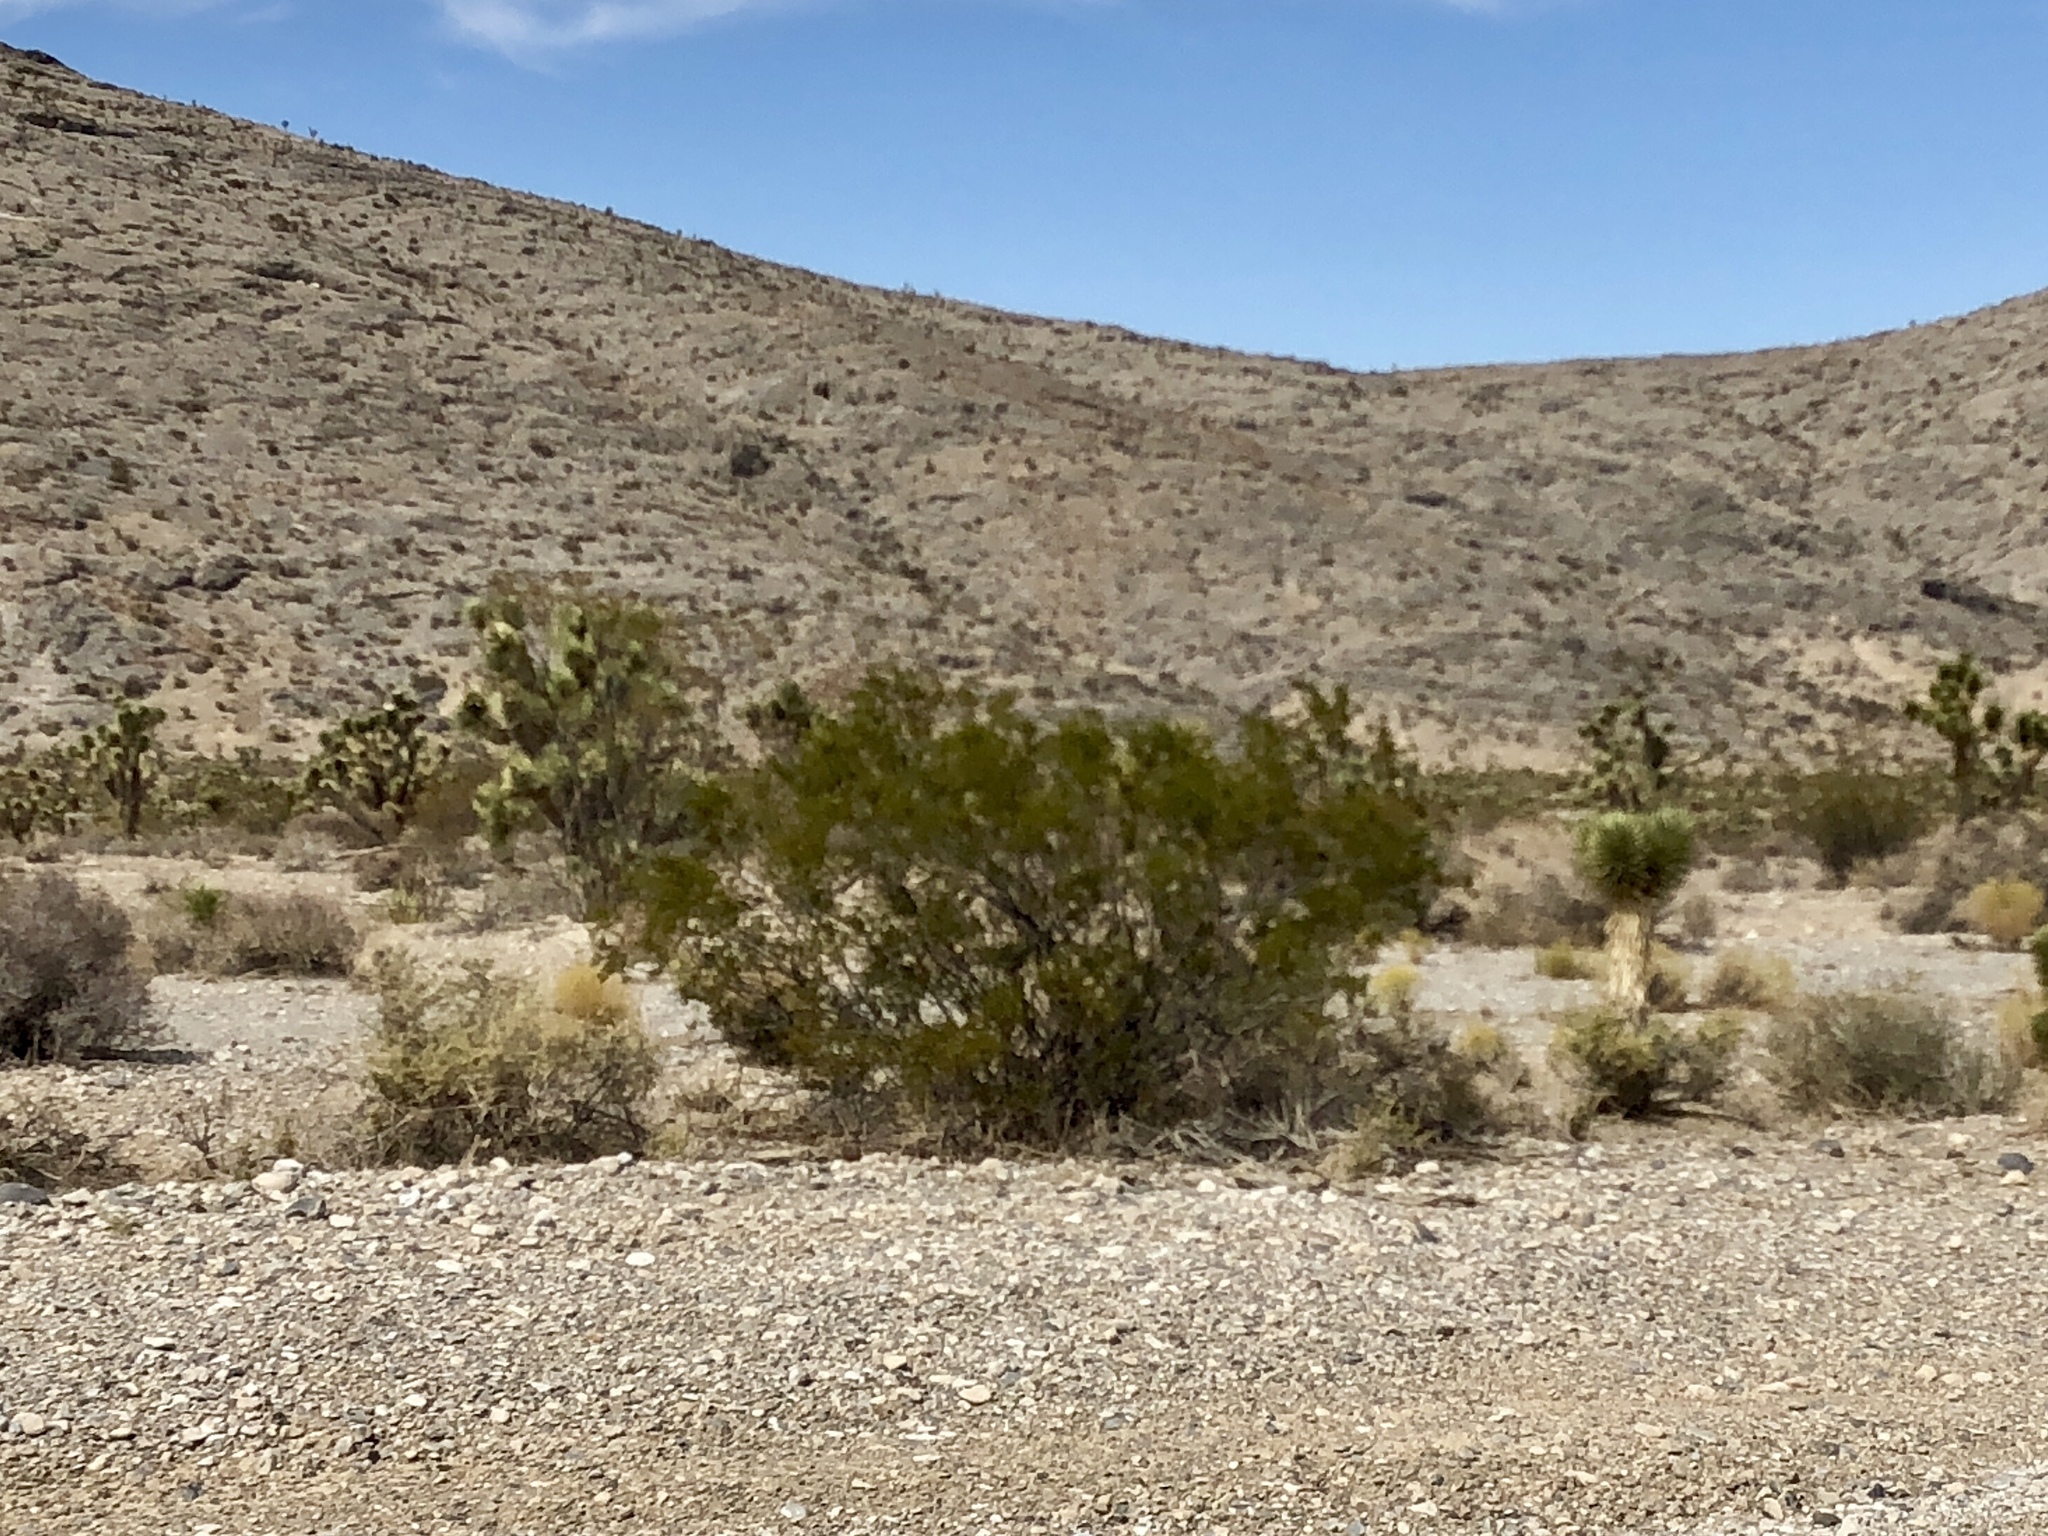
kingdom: Plantae
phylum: Tracheophyta
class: Magnoliopsida
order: Zygophyllales
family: Zygophyllaceae
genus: Larrea
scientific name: Larrea tridentata
